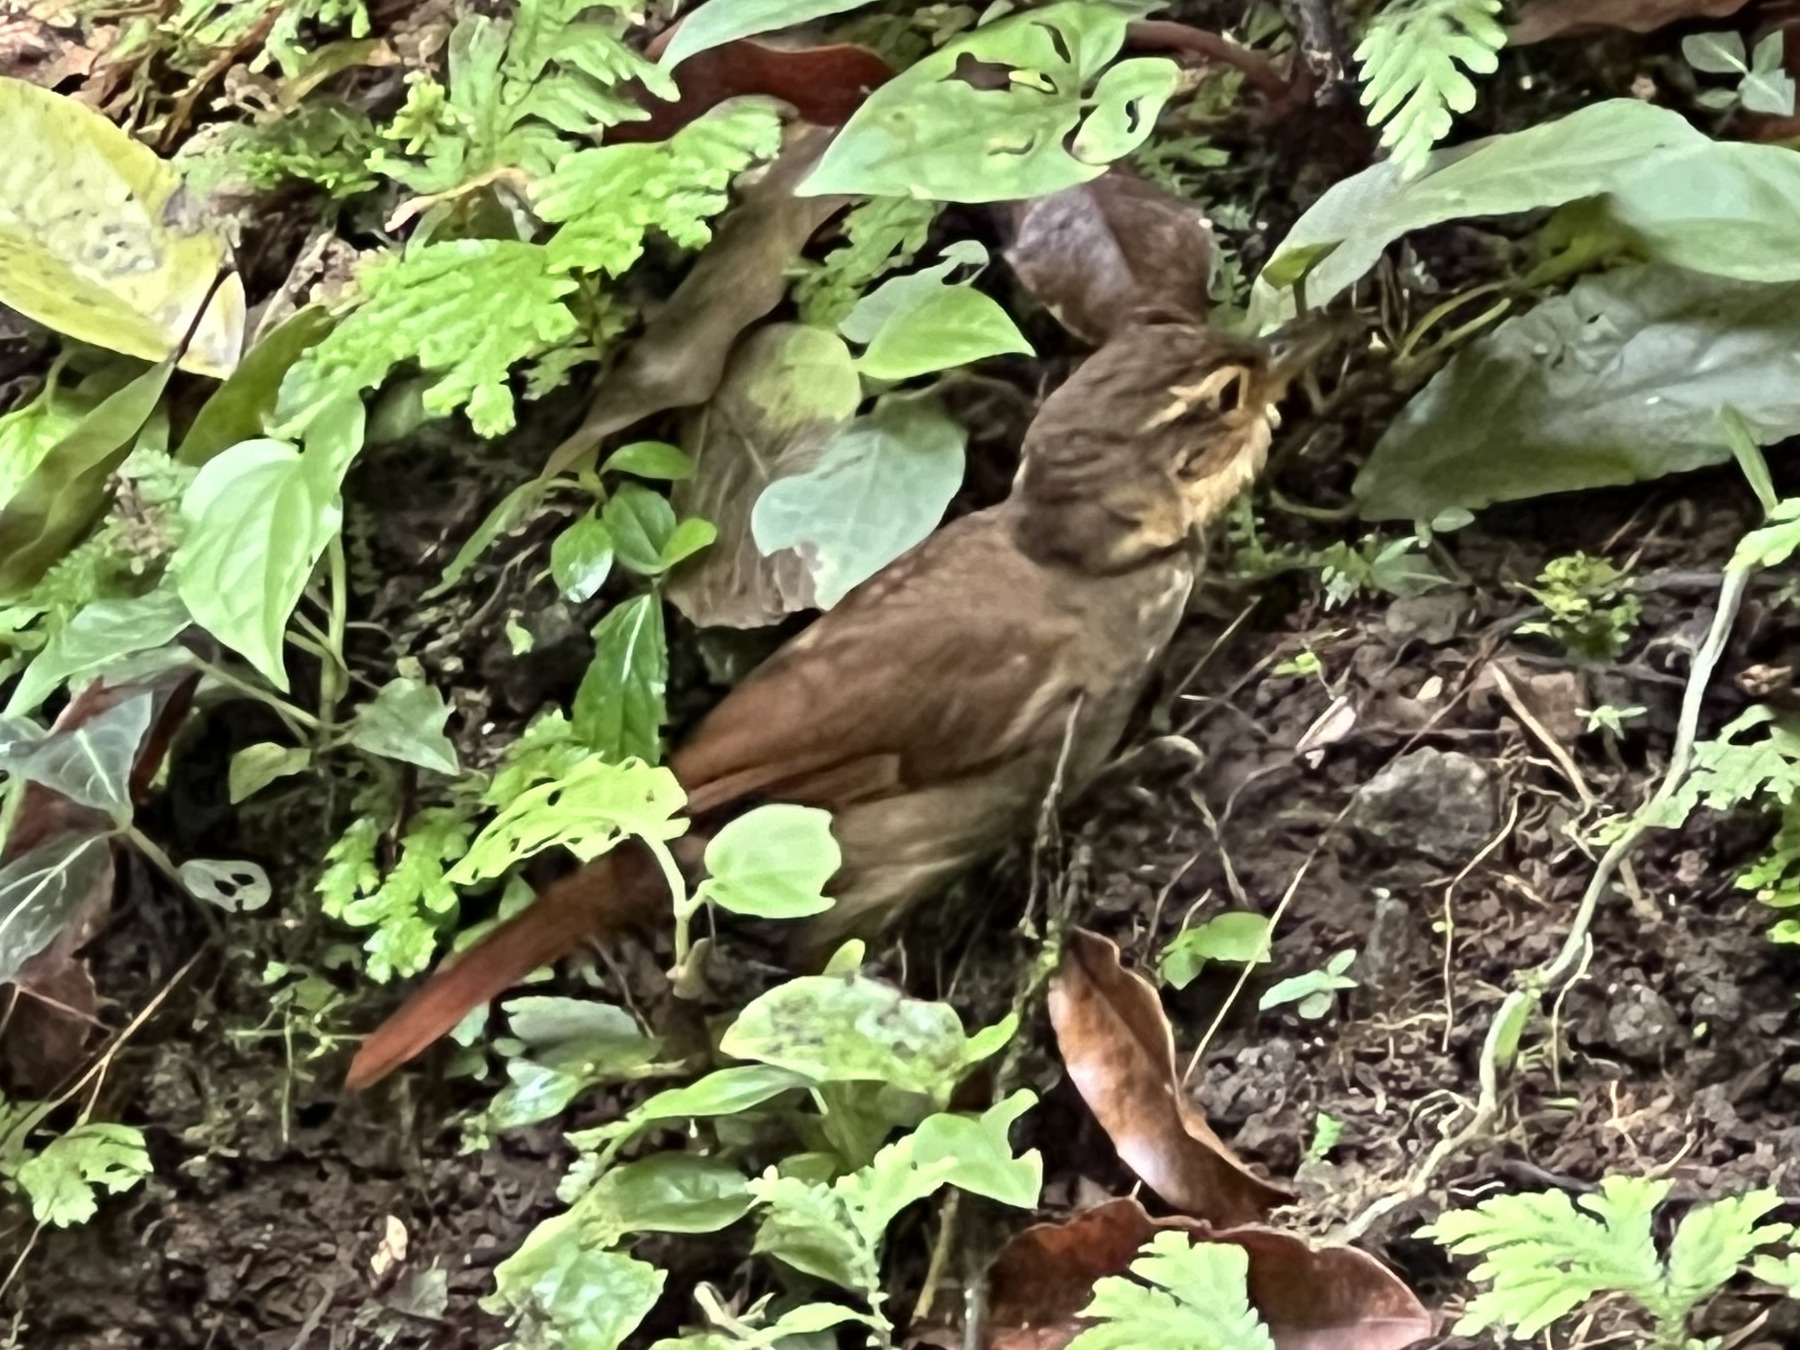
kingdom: Animalia
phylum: Chordata
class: Aves
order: Passeriformes
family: Furnariidae
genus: Automolus
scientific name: Automolus ochrolaemus
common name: Buff-throated foliage-gleaner
